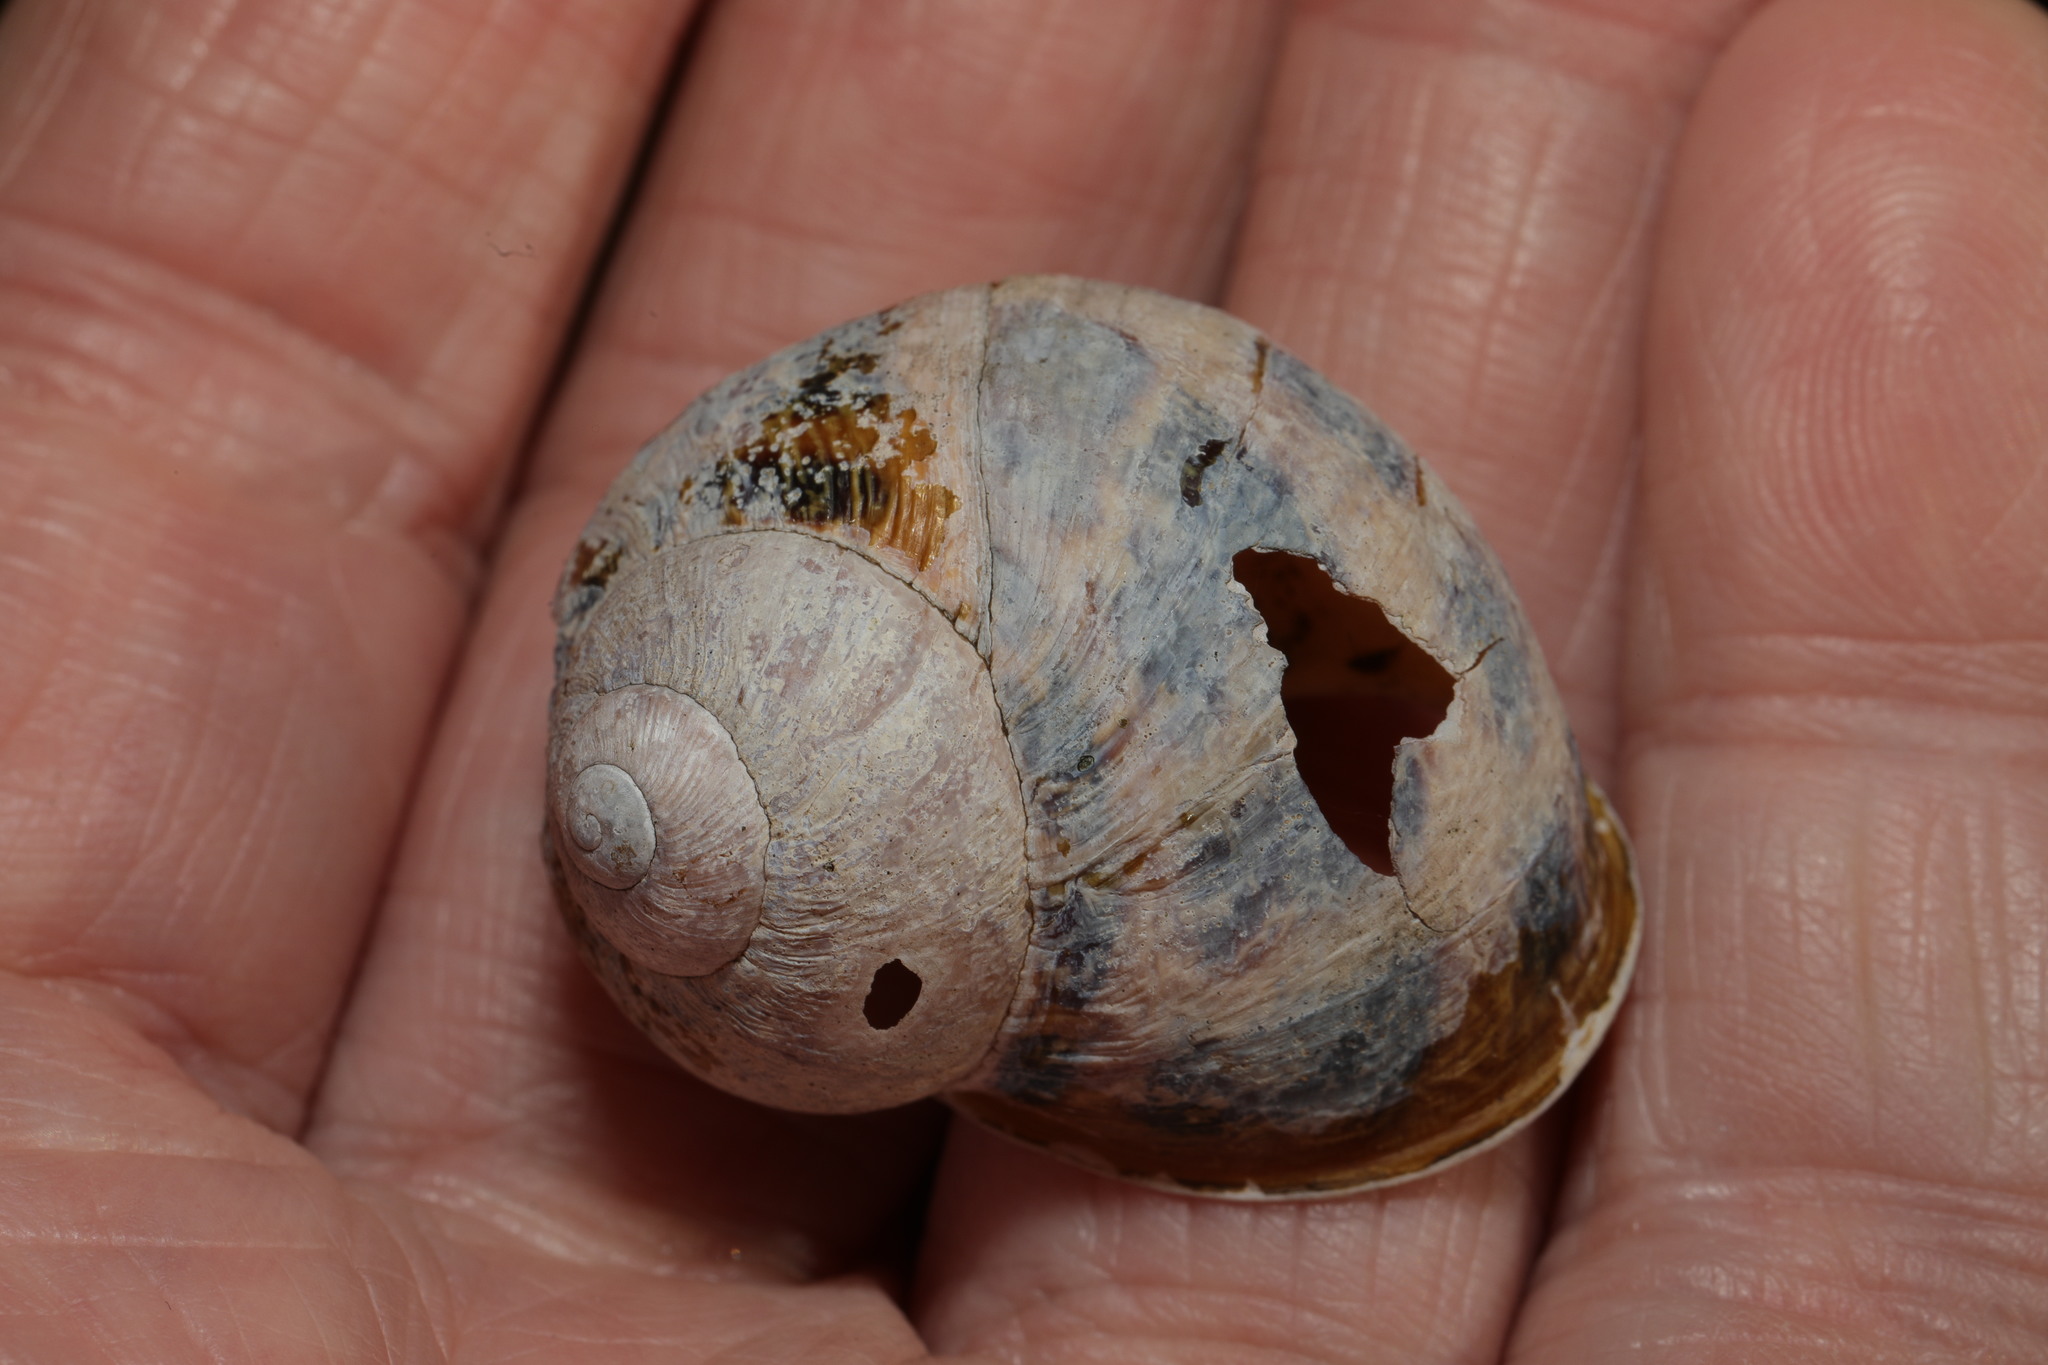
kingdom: Animalia
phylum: Mollusca
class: Gastropoda
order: Stylommatophora
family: Helicidae
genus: Cornu
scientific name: Cornu aspersum
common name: Brown garden snail
